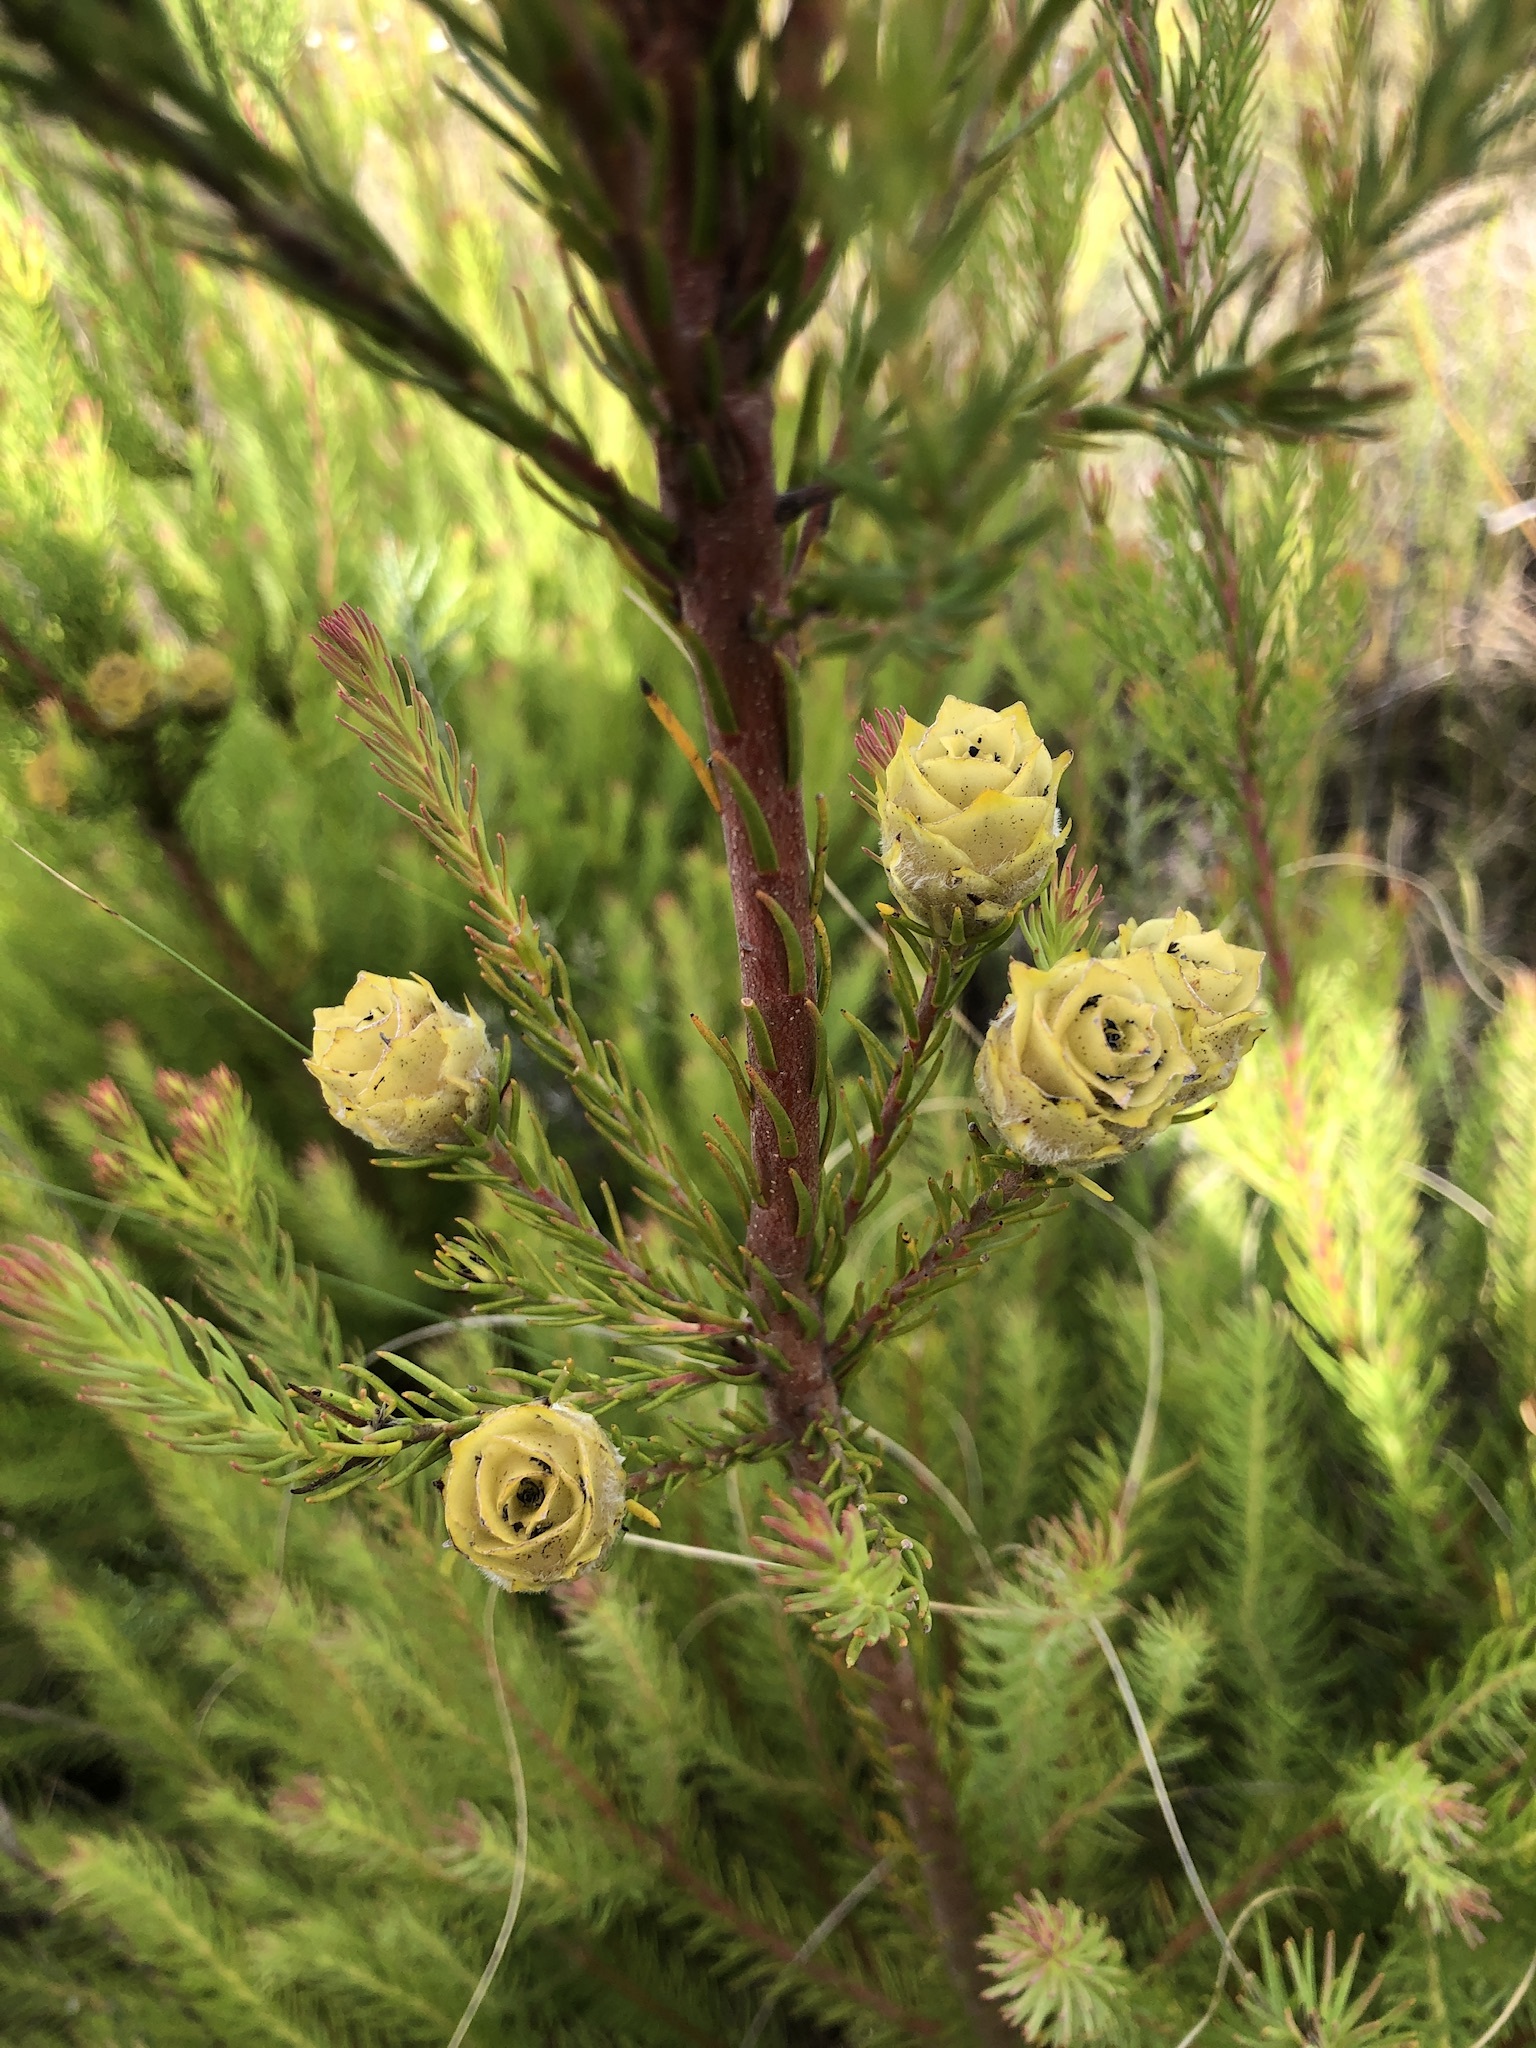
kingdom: Plantae
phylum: Tracheophyta
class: Magnoliopsida
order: Proteales
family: Proteaceae
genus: Leucadendron
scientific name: Leucadendron laxum
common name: Bredasdorp conebush
